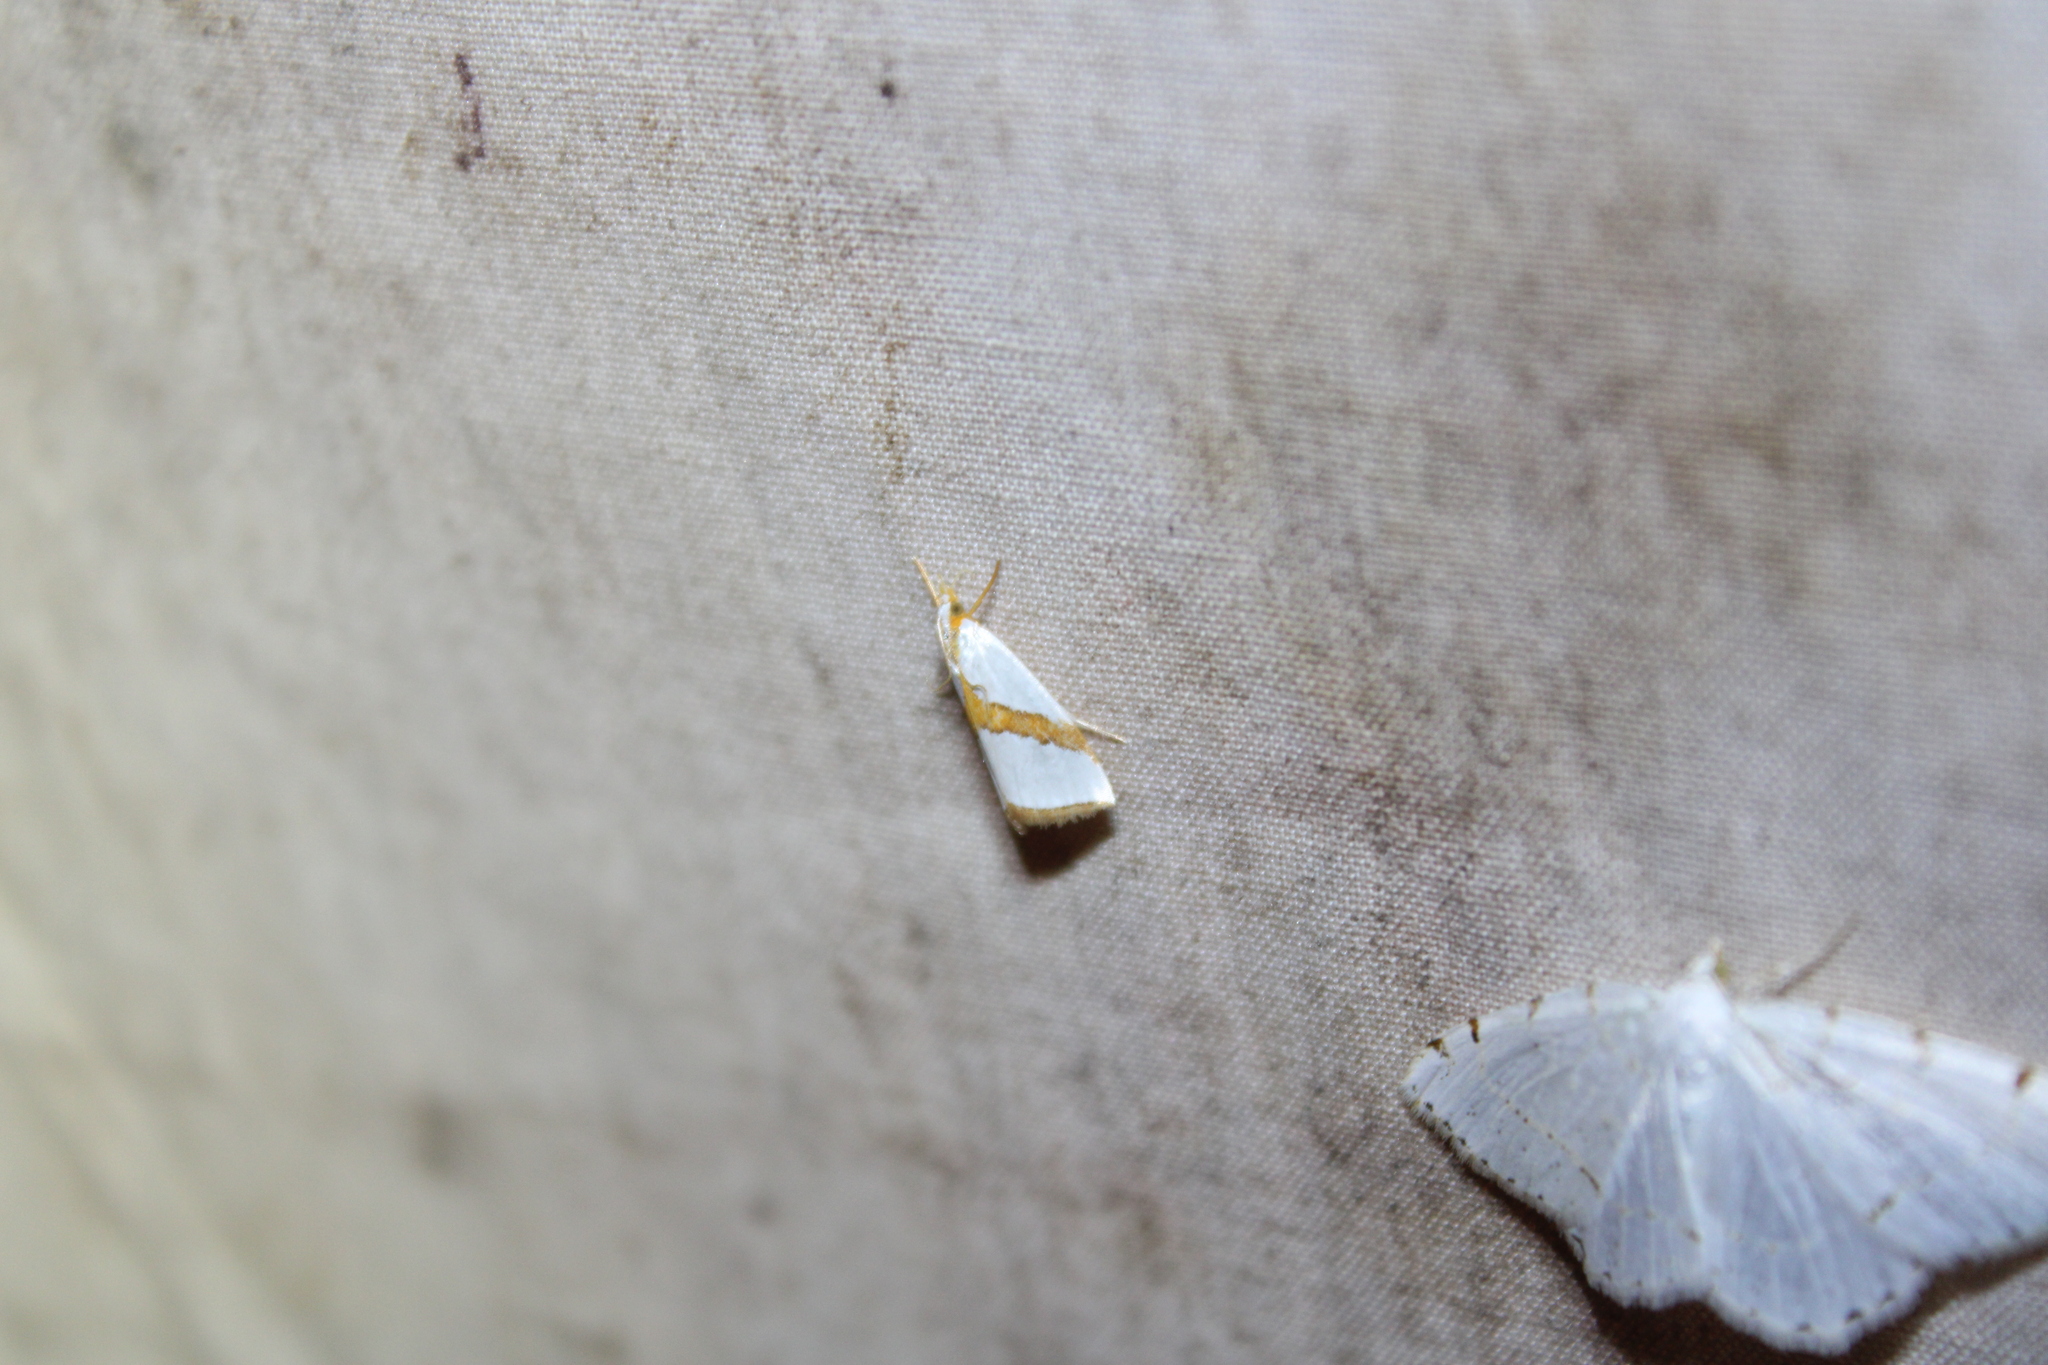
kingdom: Animalia
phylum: Arthropoda
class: Insecta
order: Lepidoptera
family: Crambidae
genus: Vaxi
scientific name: Vaxi critica
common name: Straight-lined vaxi moth
